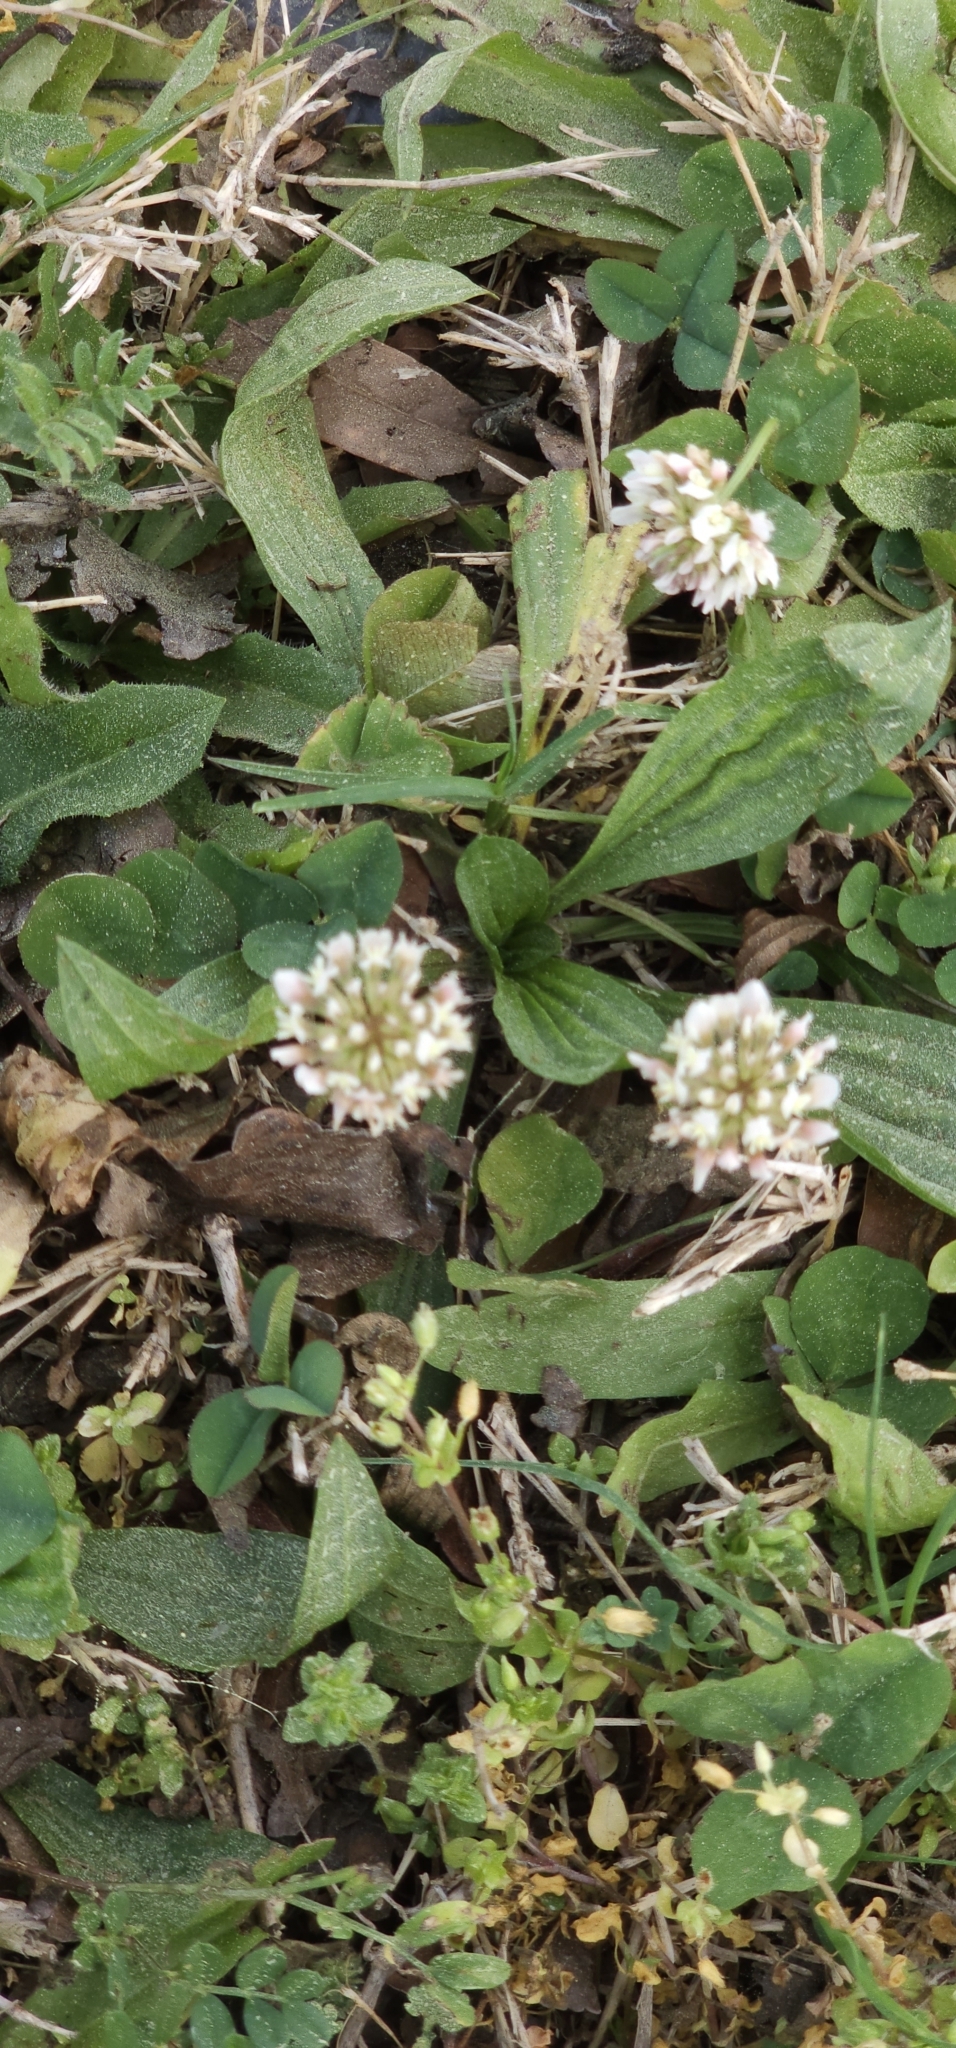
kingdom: Plantae
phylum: Tracheophyta
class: Magnoliopsida
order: Fabales
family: Fabaceae
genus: Trifolium
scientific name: Trifolium repens
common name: White clover
